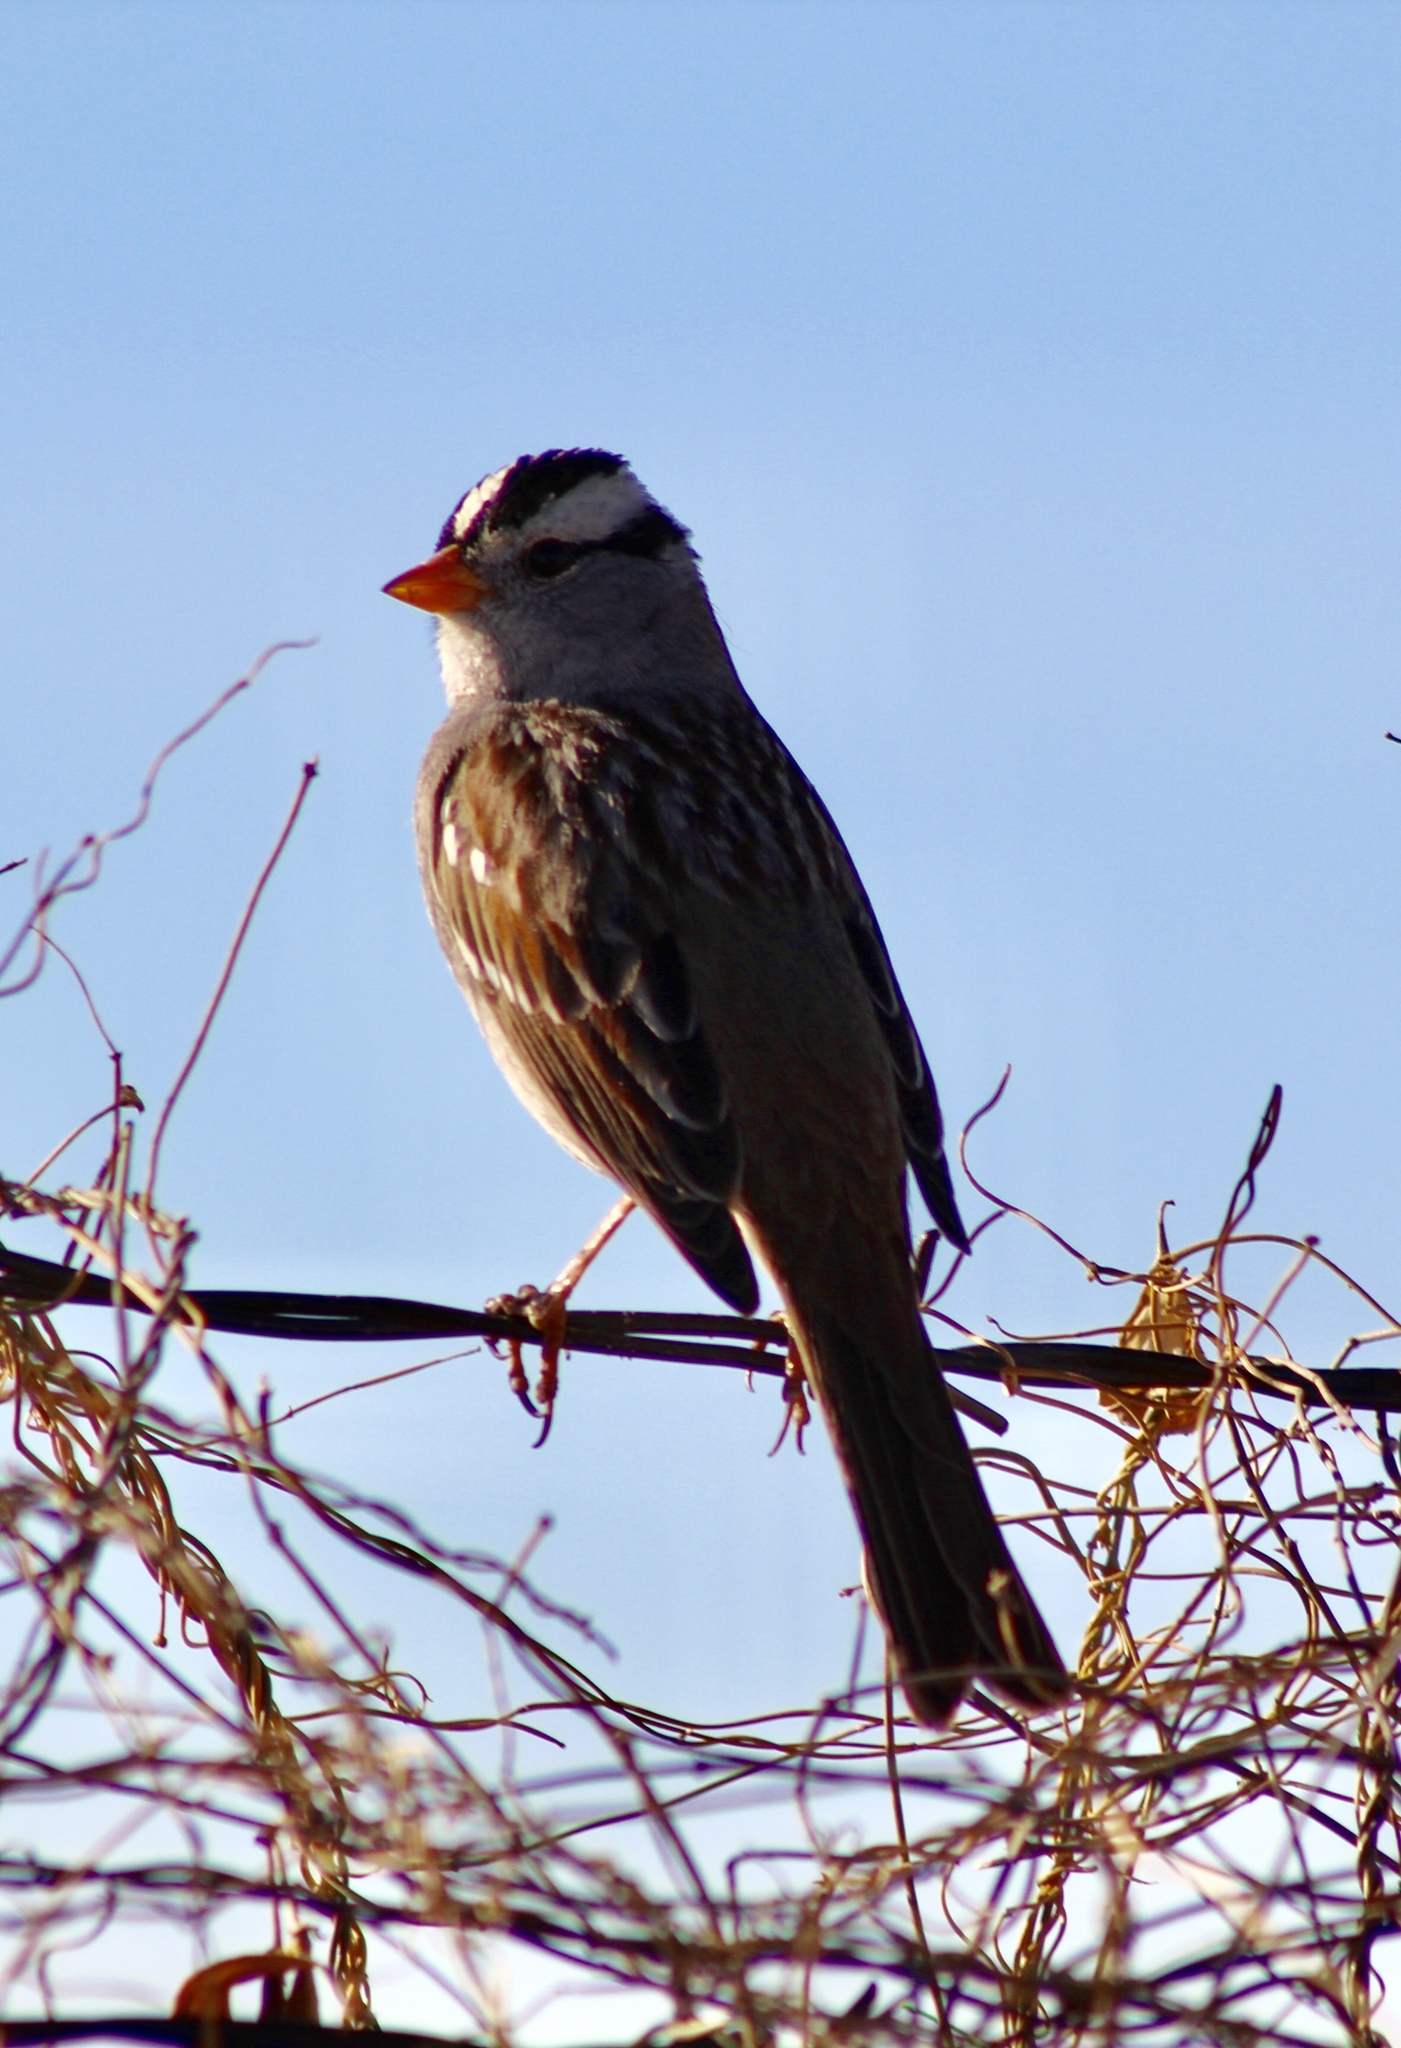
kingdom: Animalia
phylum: Chordata
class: Aves
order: Passeriformes
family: Passerellidae
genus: Zonotrichia
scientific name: Zonotrichia leucophrys
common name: White-crowned sparrow
